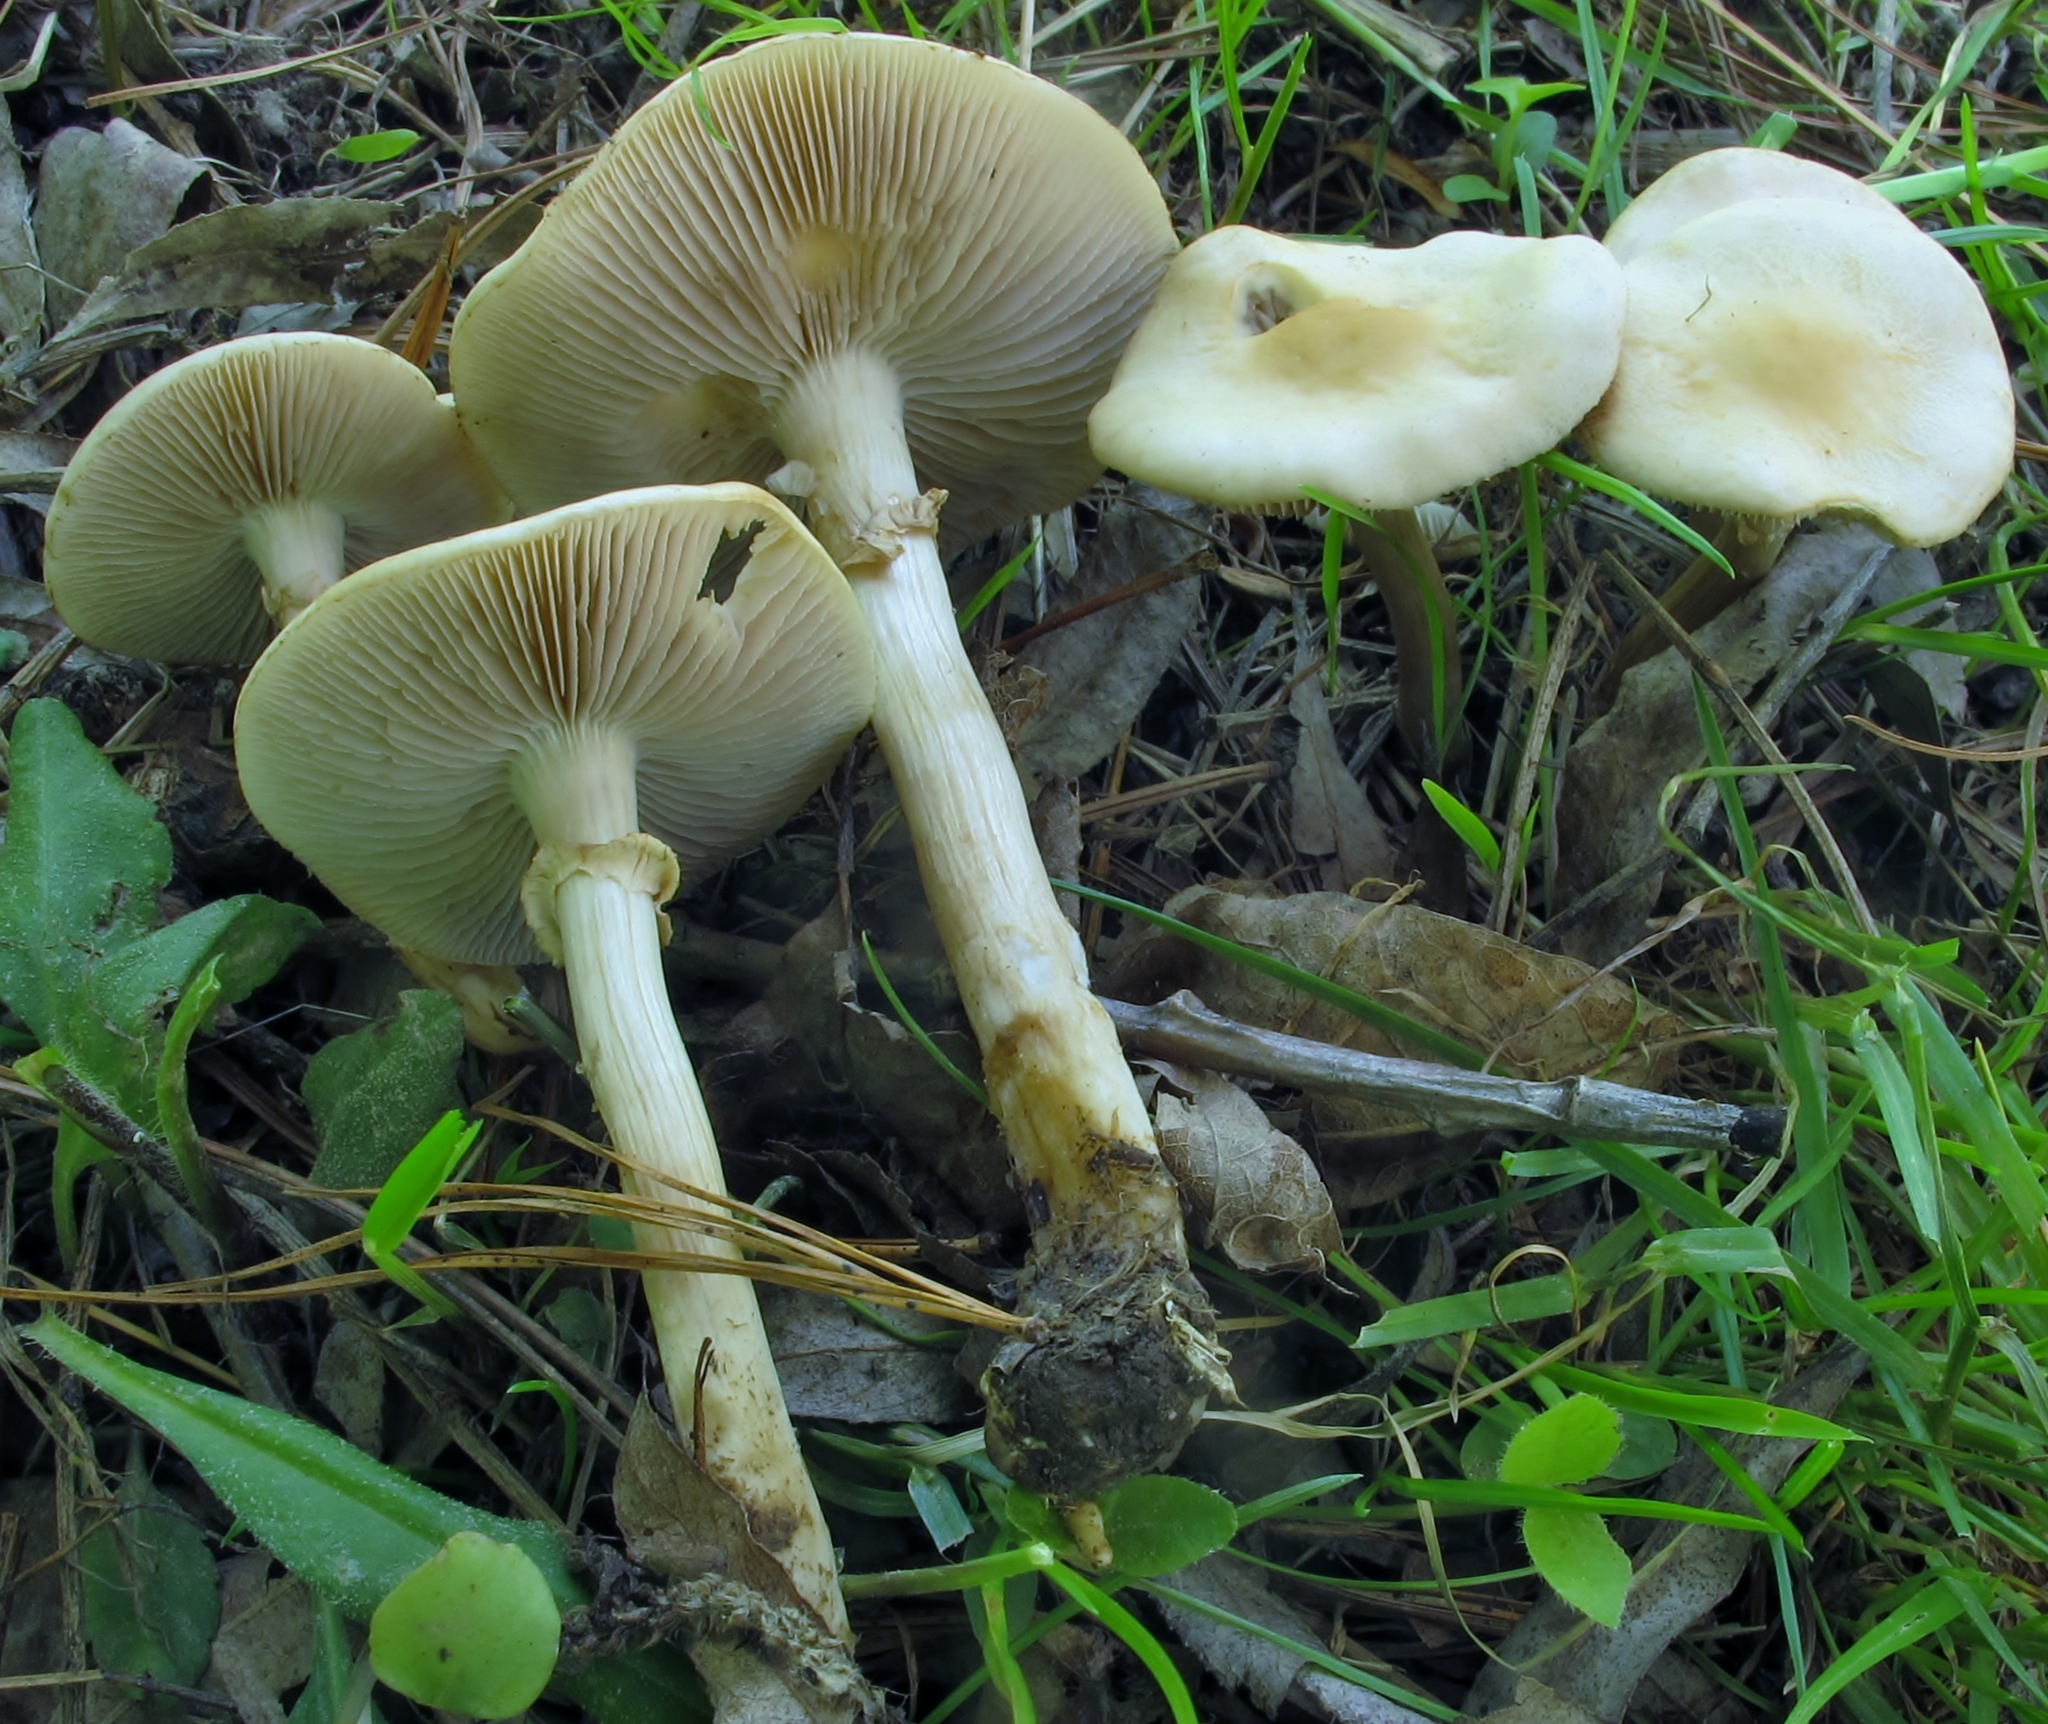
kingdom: Fungi
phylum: Basidiomycota
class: Agaricomycetes
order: Agaricales
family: Strophariaceae
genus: Agrocybe
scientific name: Agrocybe praecox
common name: Spring fieldcap
